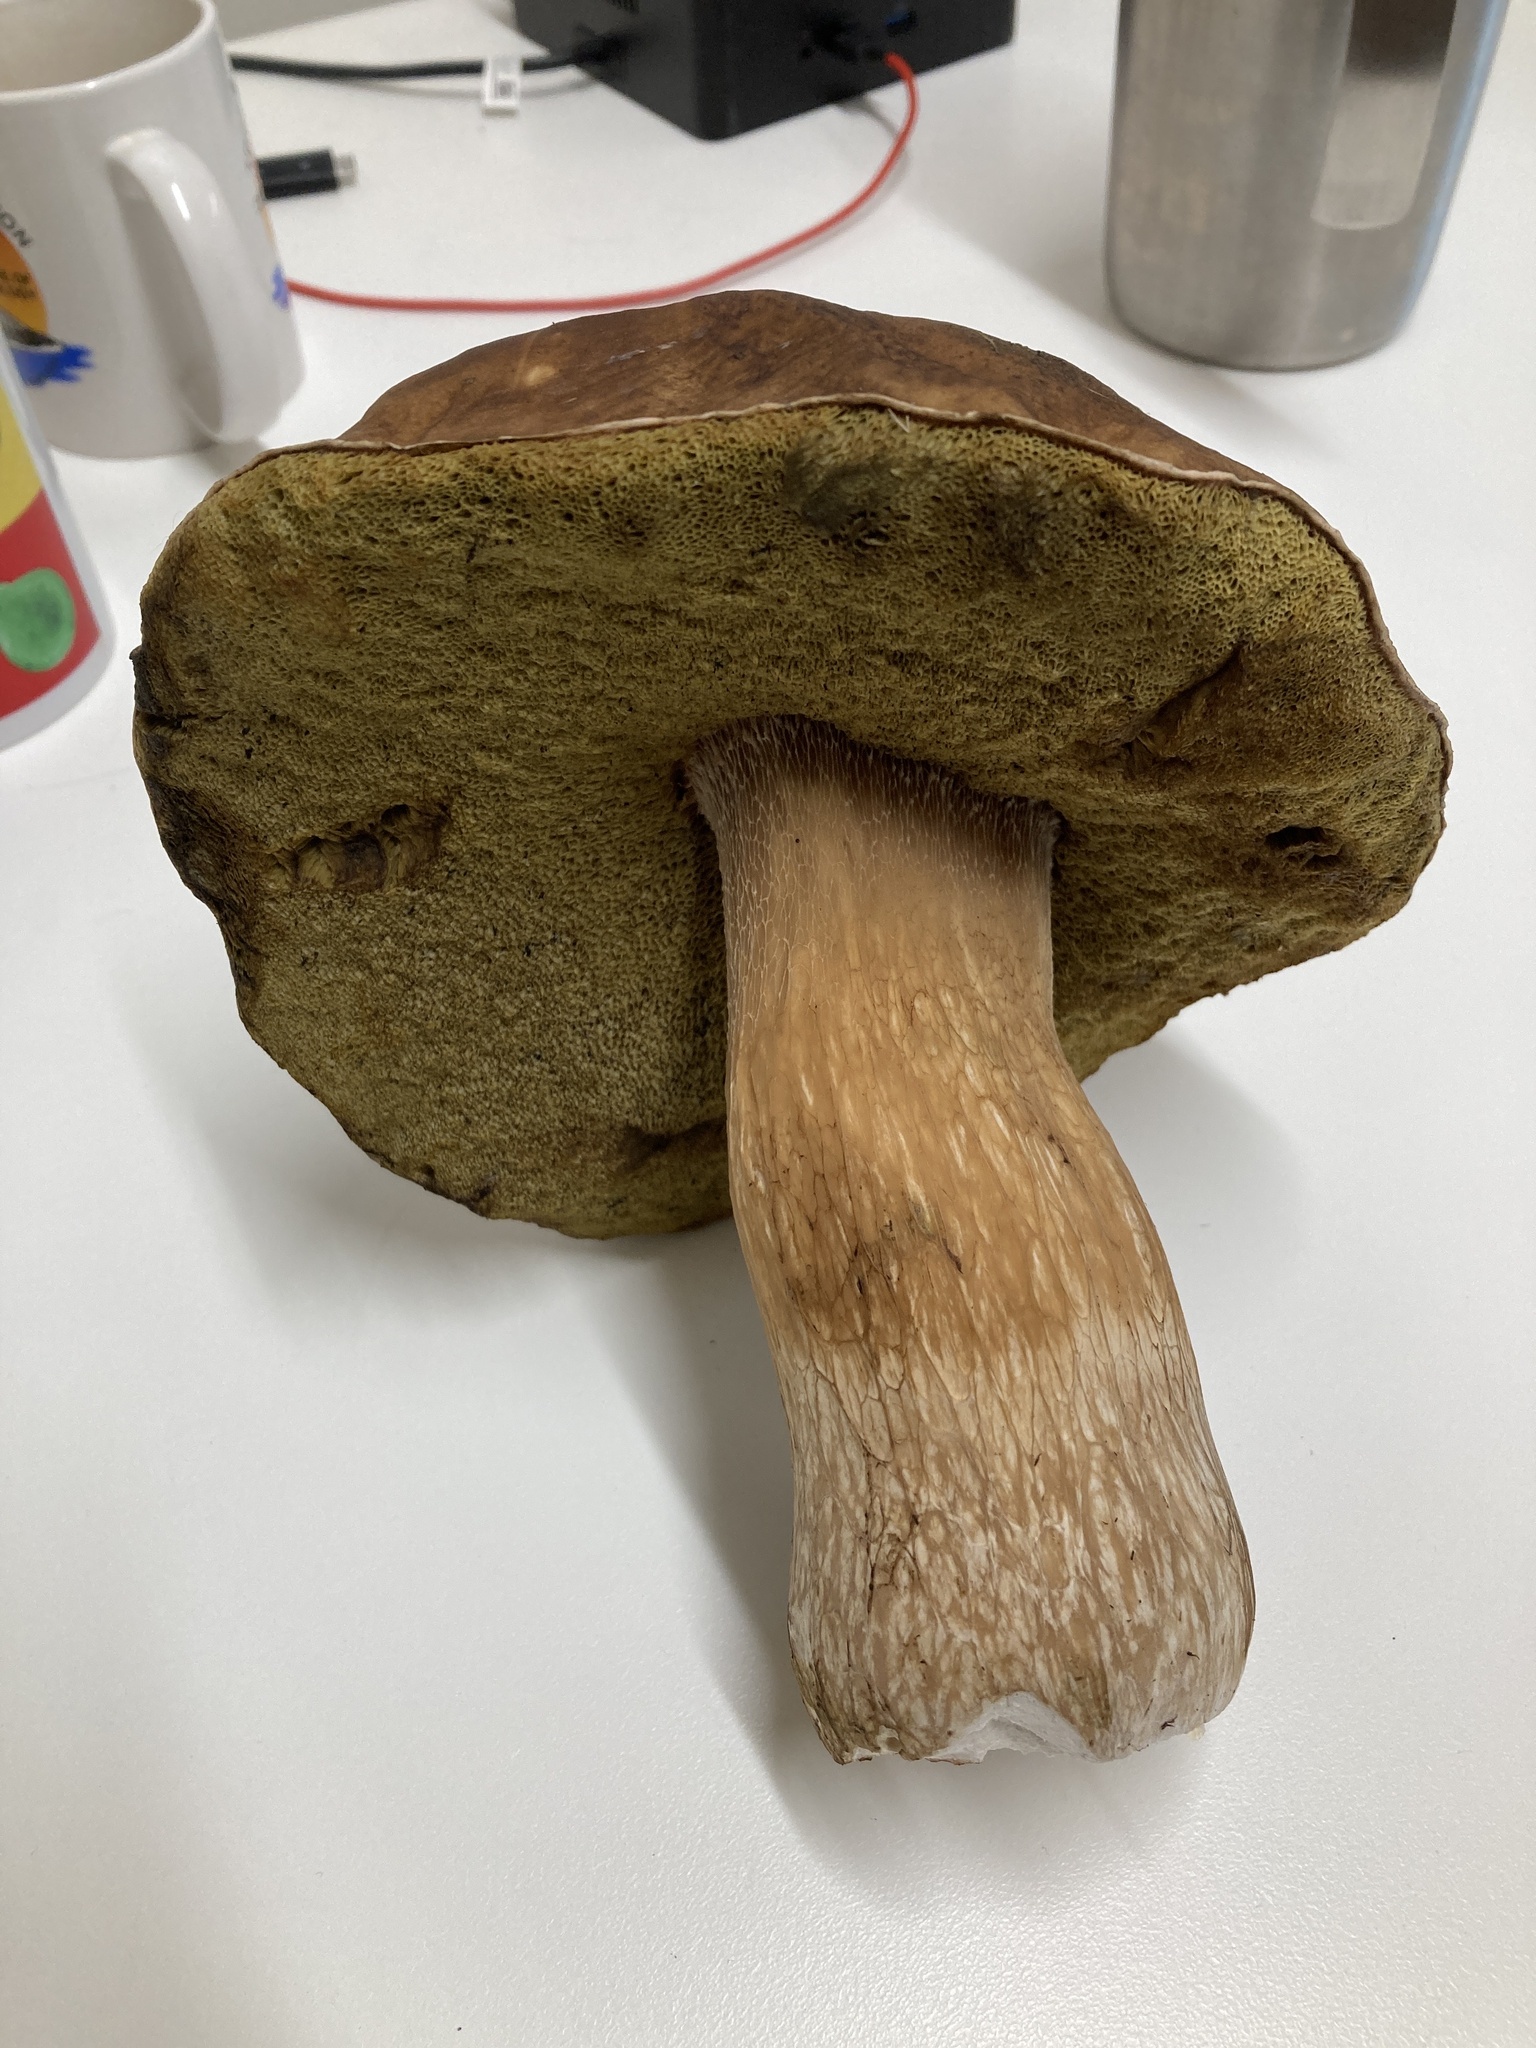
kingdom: Fungi
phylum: Basidiomycota
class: Agaricomycetes
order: Boletales
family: Boletaceae
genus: Boletus
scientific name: Boletus edulis
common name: Cep
